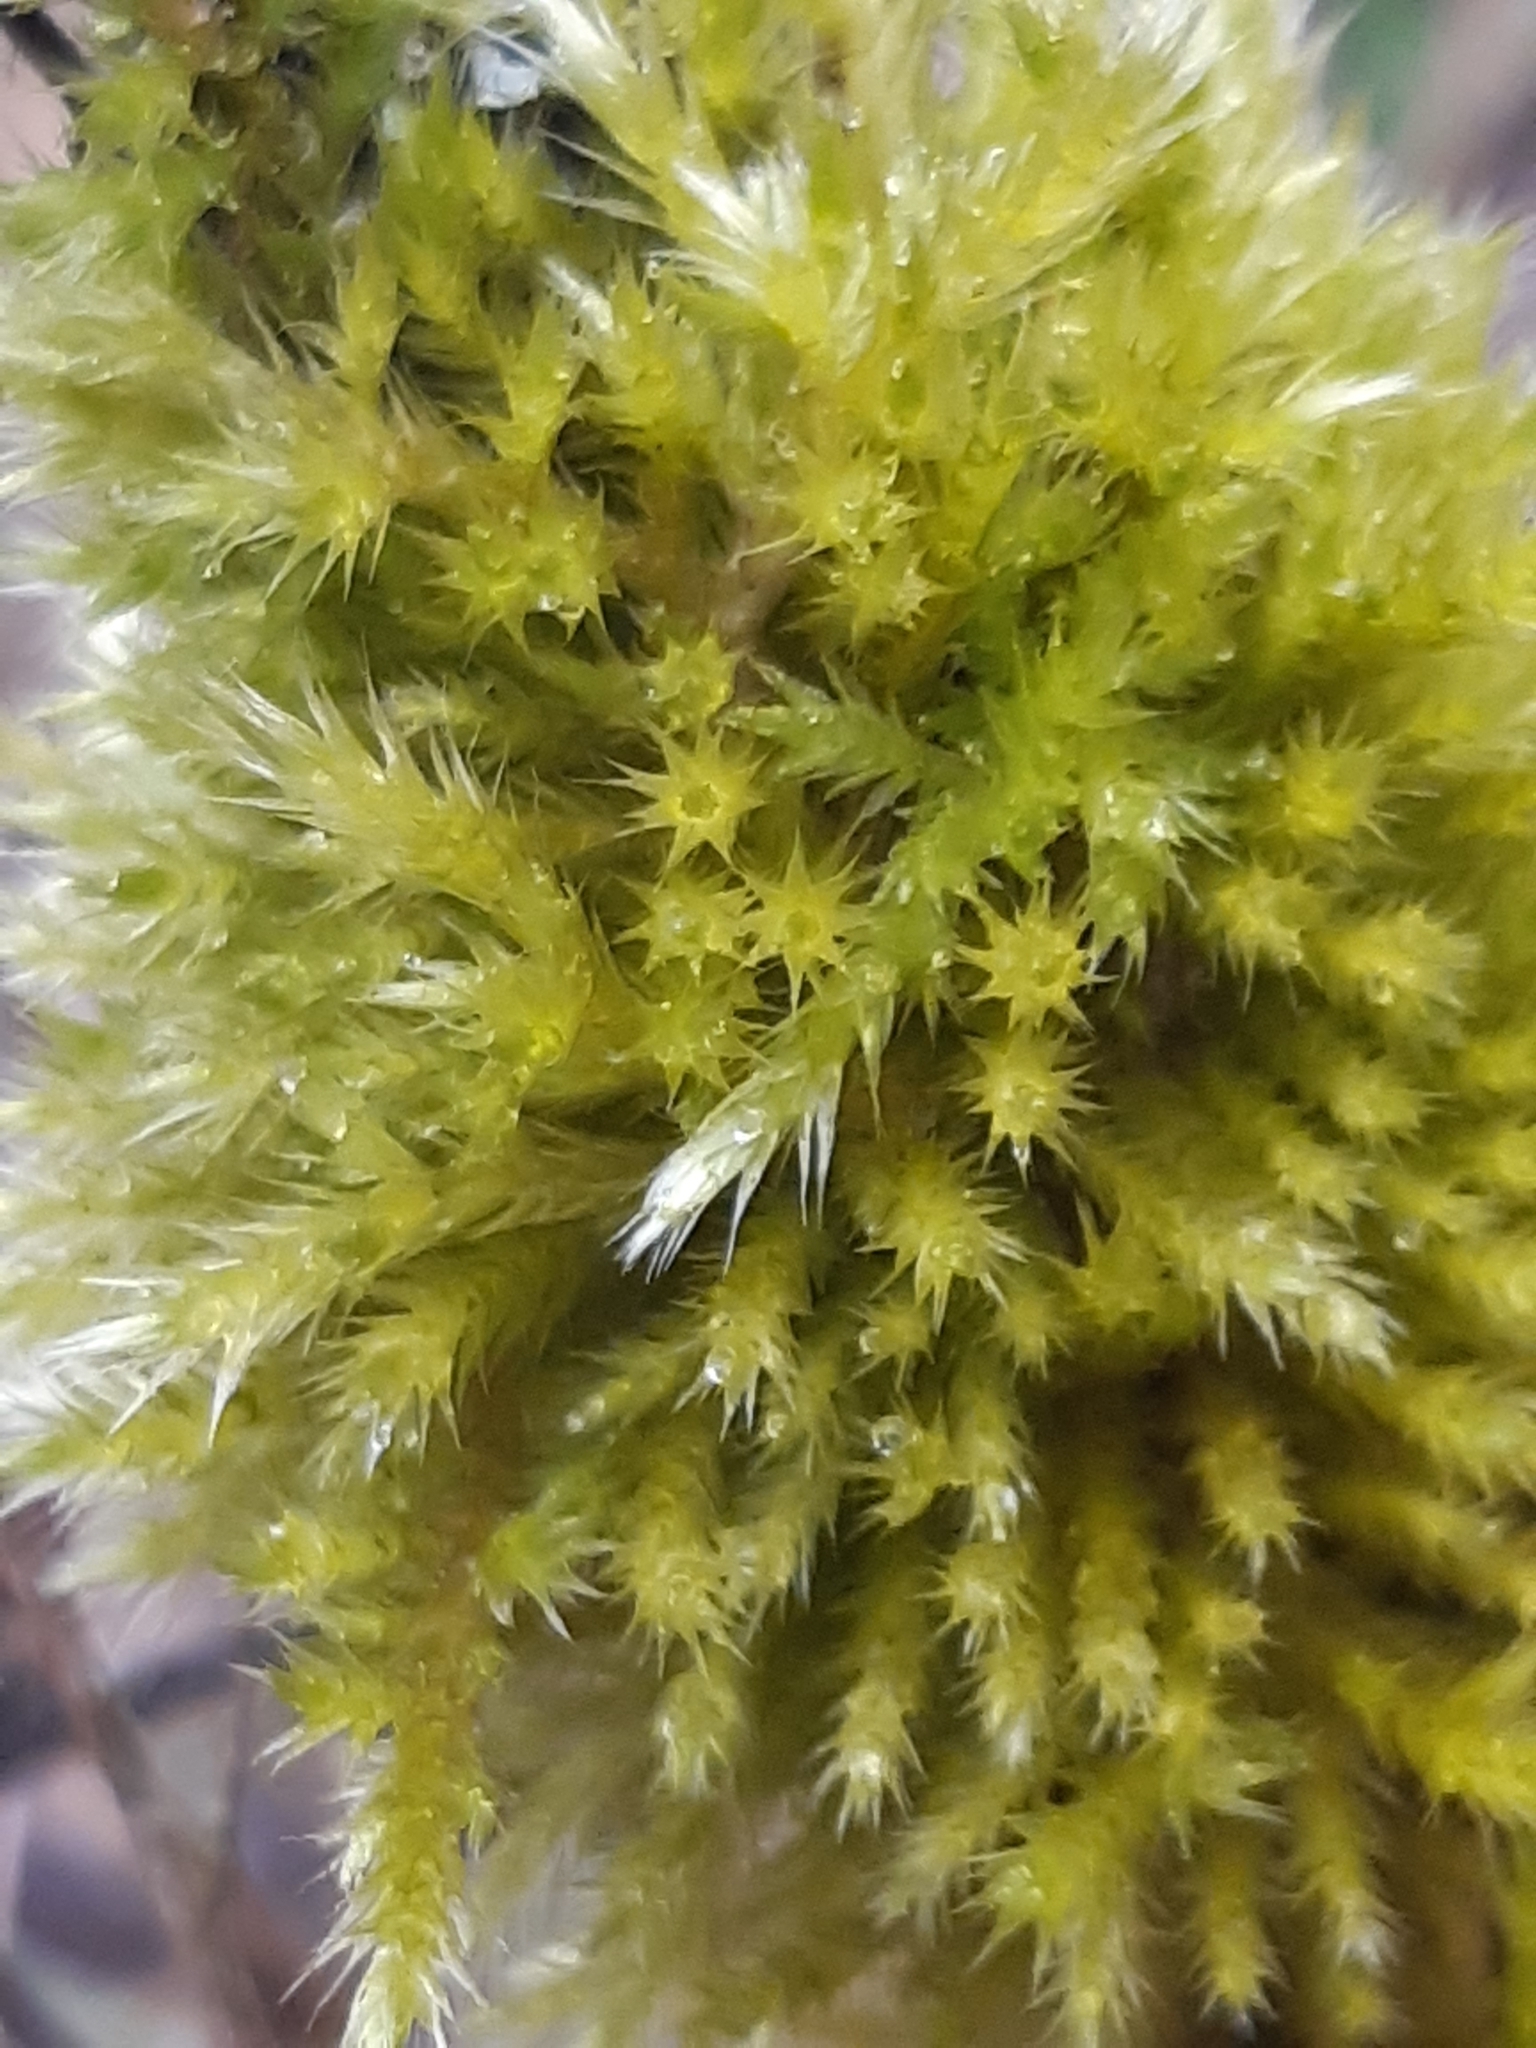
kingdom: Plantae
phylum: Bryophyta
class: Bryopsida
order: Hypnales
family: Brachytheciaceae
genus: Homalothecium
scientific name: Homalothecium lutescens
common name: Yellow feather-moss
